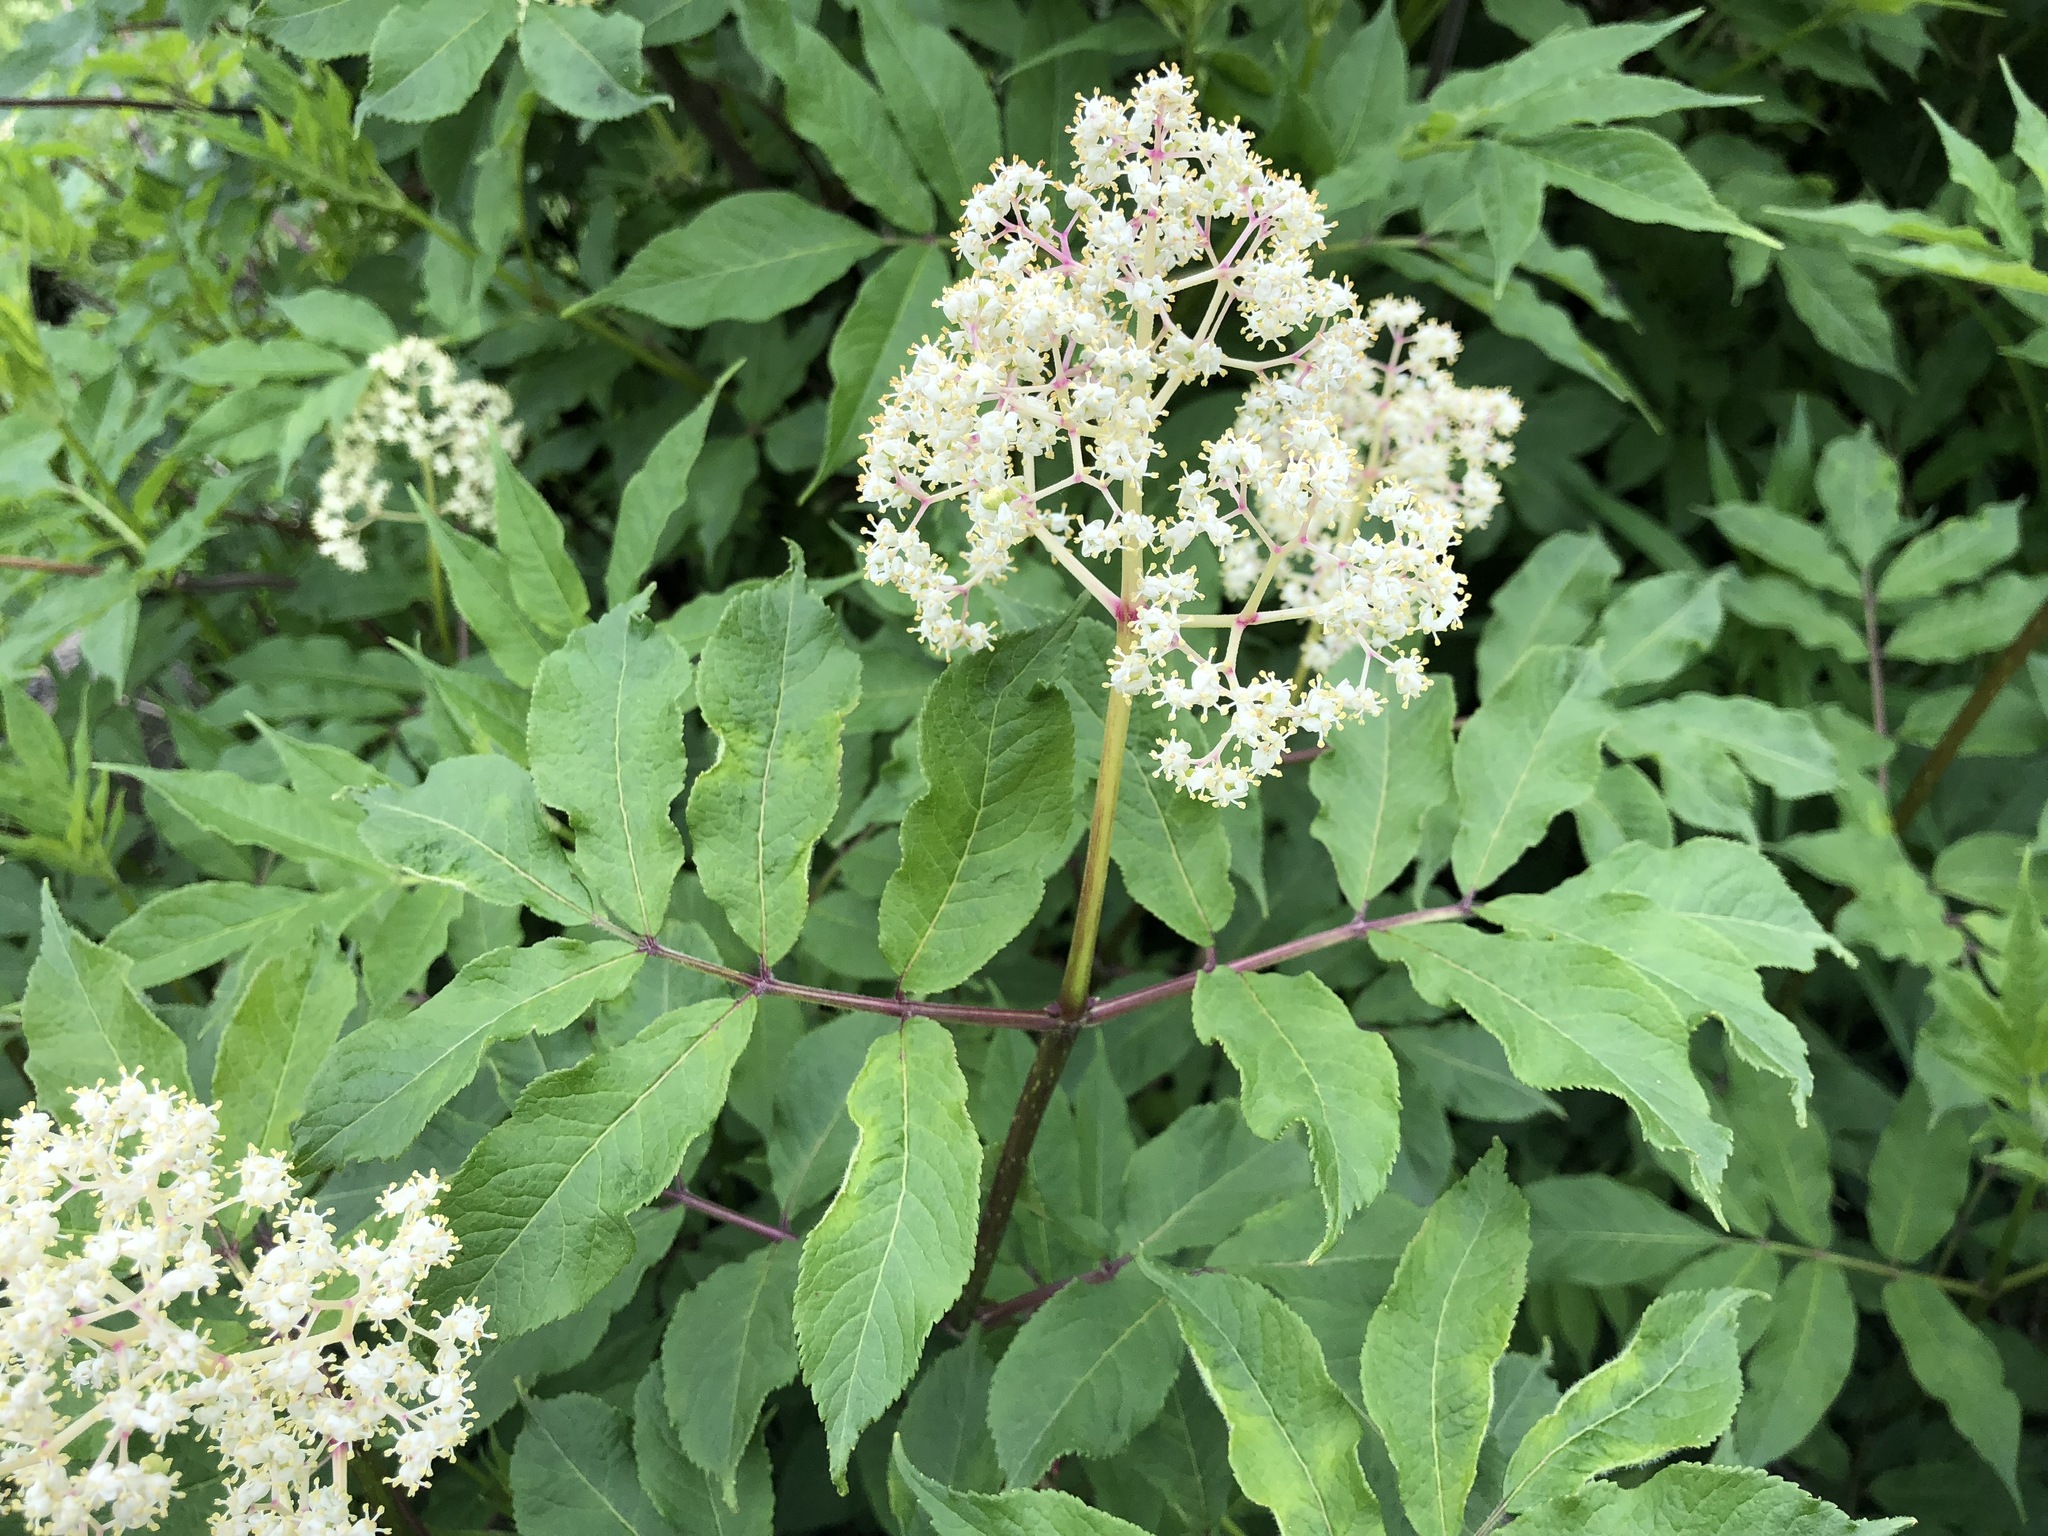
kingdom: Plantae
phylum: Tracheophyta
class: Magnoliopsida
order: Dipsacales
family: Viburnaceae
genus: Sambucus
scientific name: Sambucus racemosa
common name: Red-berried elder
